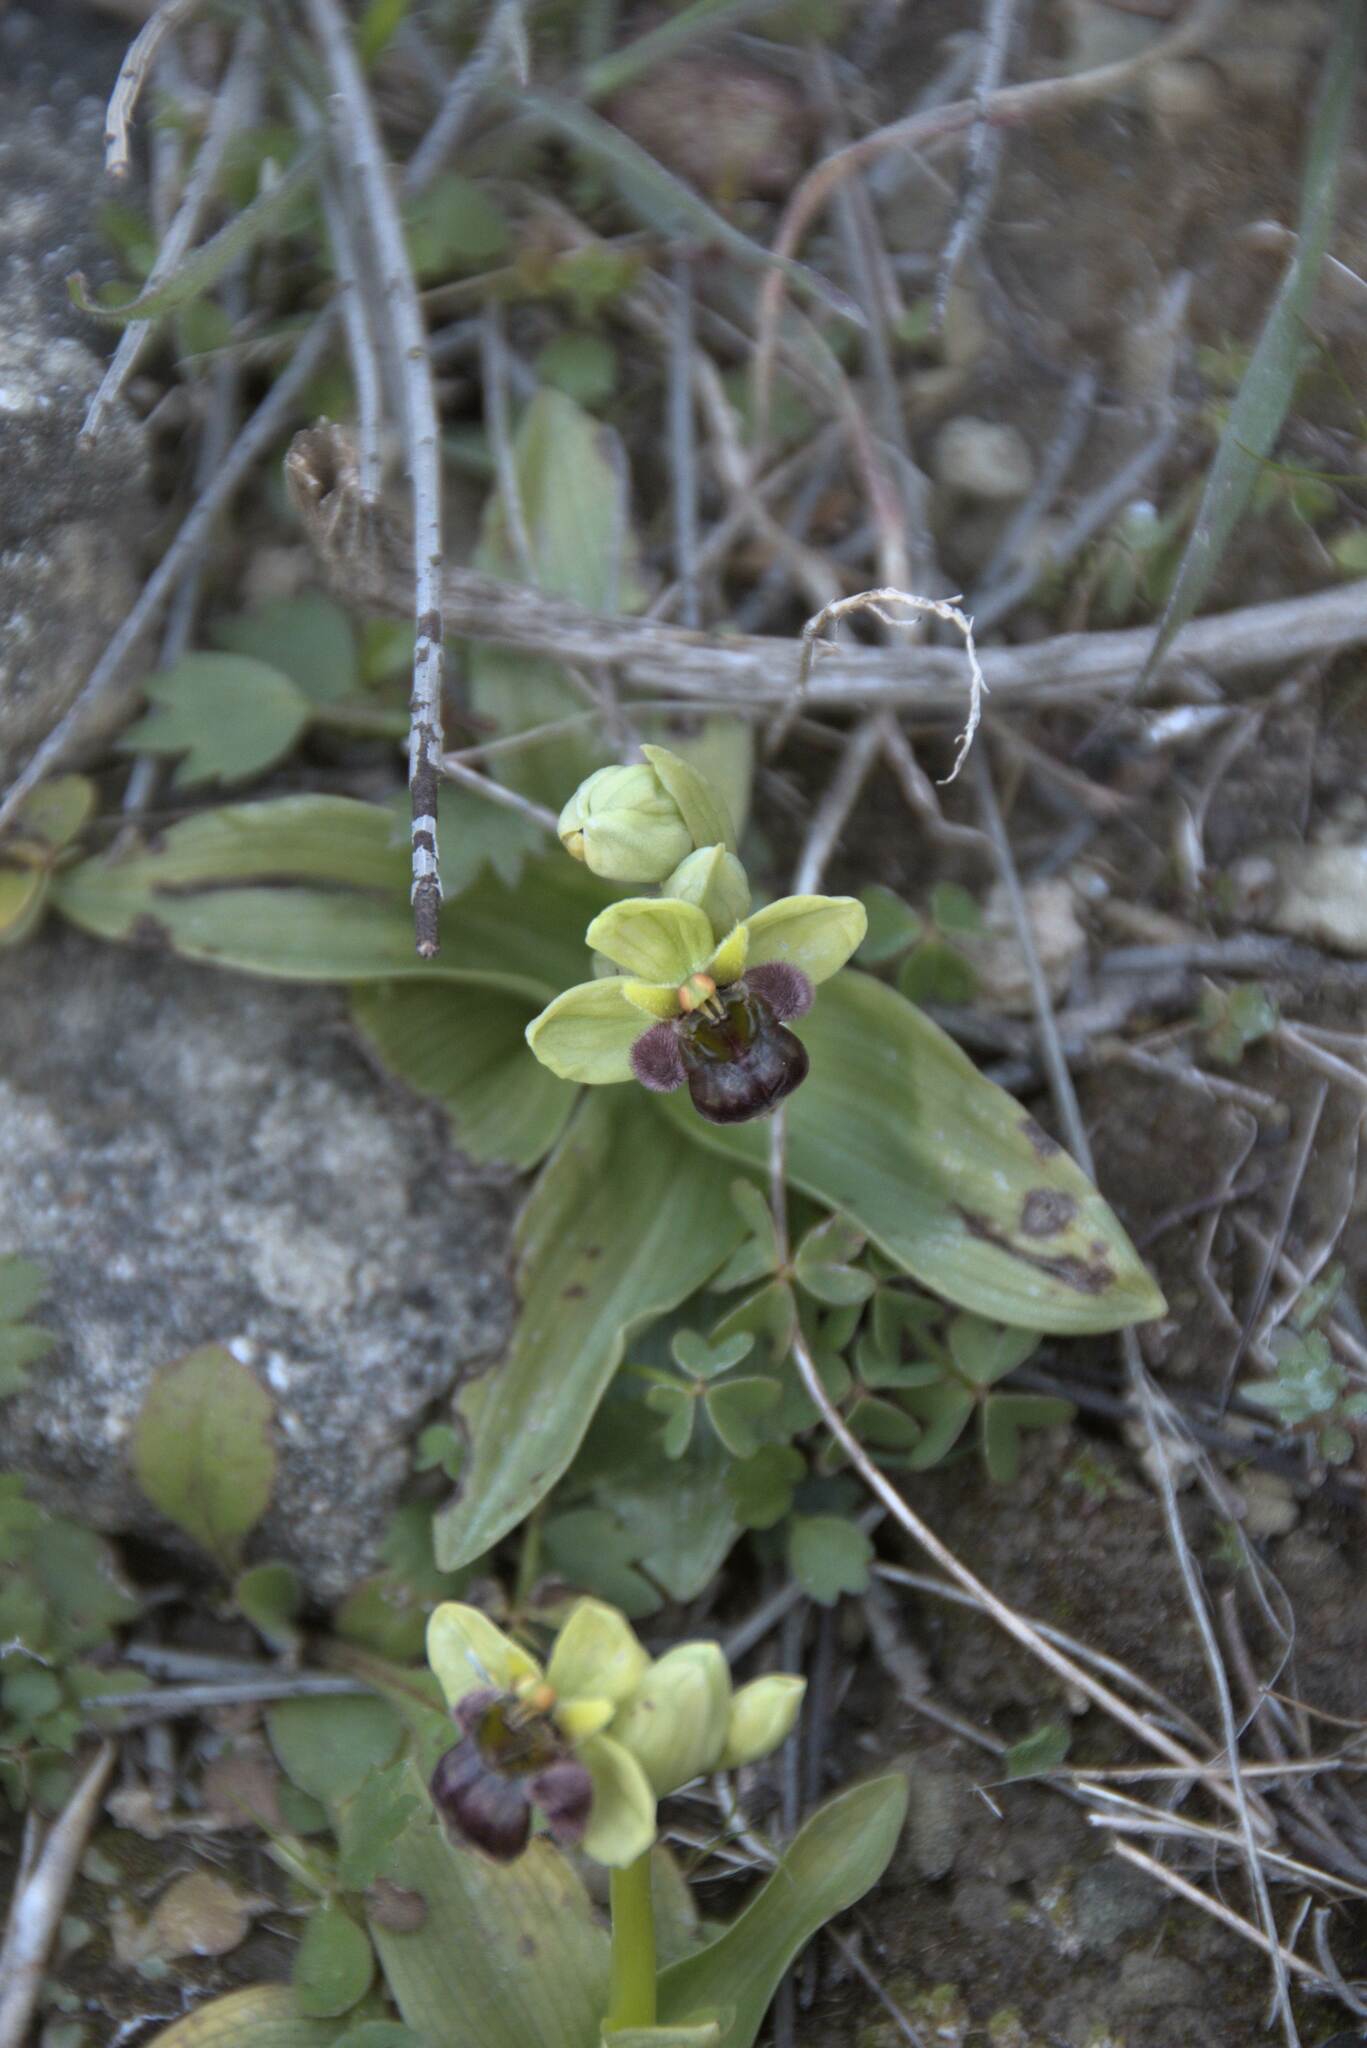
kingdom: Plantae
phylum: Tracheophyta
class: Liliopsida
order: Asparagales
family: Orchidaceae
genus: Ophrys
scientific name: Ophrys bombyliflora
